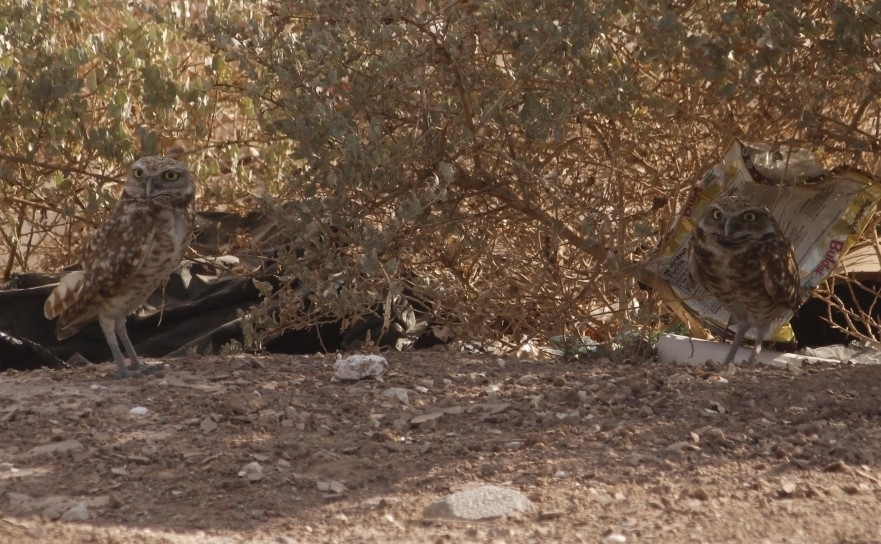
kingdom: Animalia
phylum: Chordata
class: Aves
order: Strigiformes
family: Strigidae
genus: Athene
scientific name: Athene cunicularia
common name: Burrowing owl
